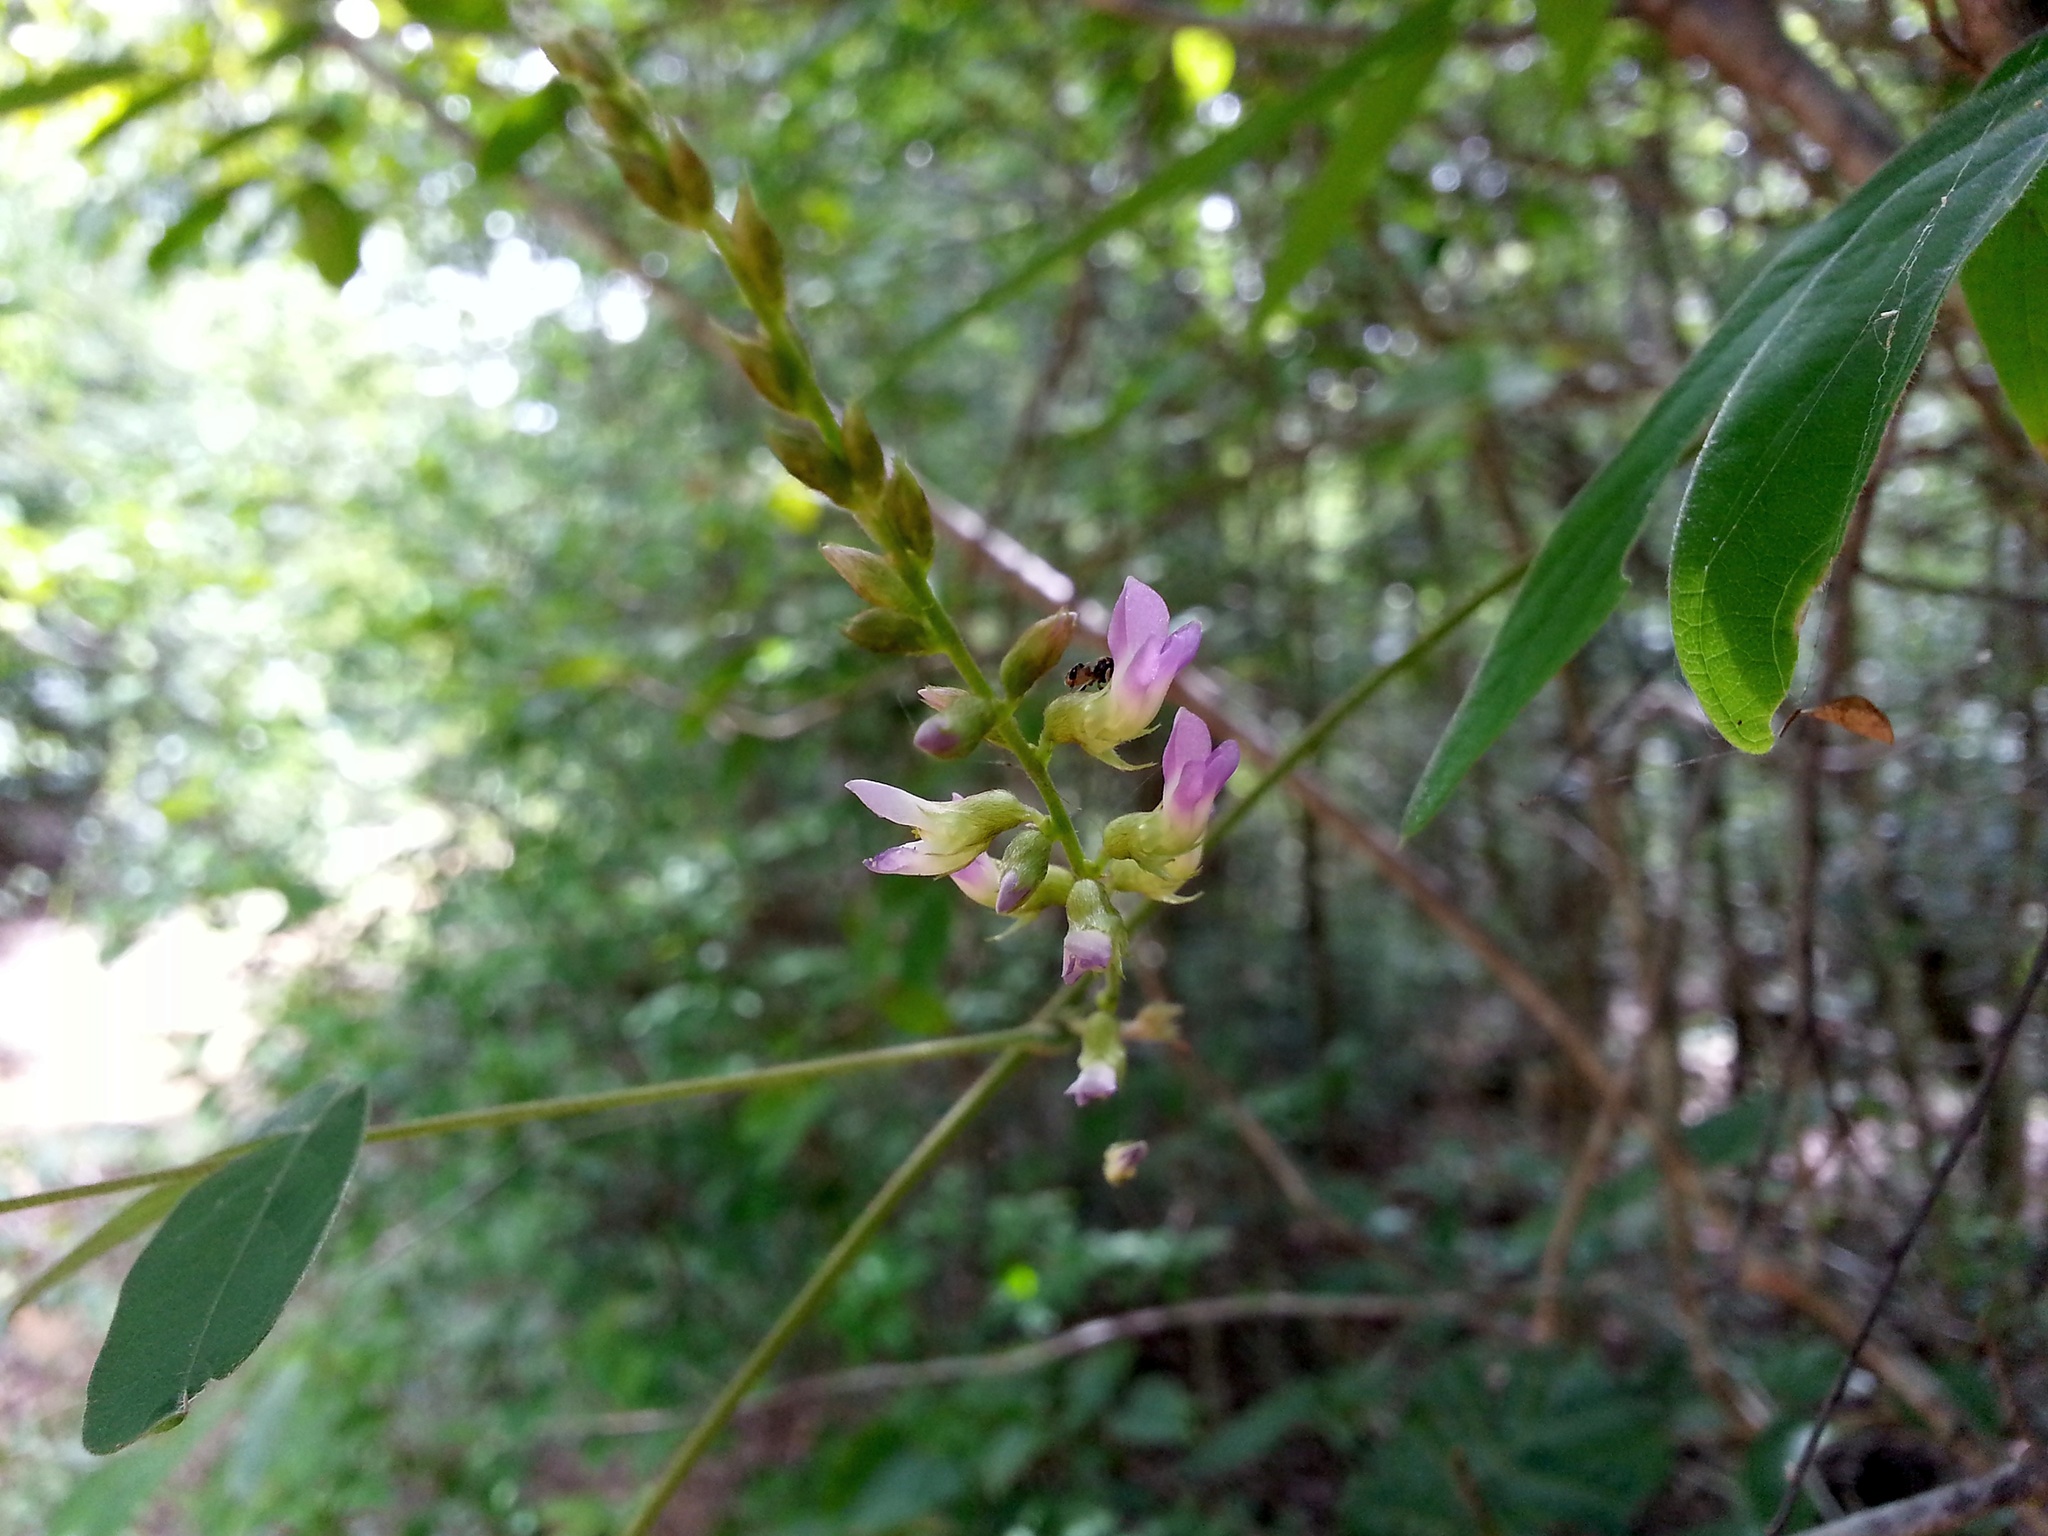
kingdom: Plantae
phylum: Tracheophyta
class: Magnoliopsida
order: Fabales
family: Fabaceae
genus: Ophrestia
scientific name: Ophrestia madagascariensis
